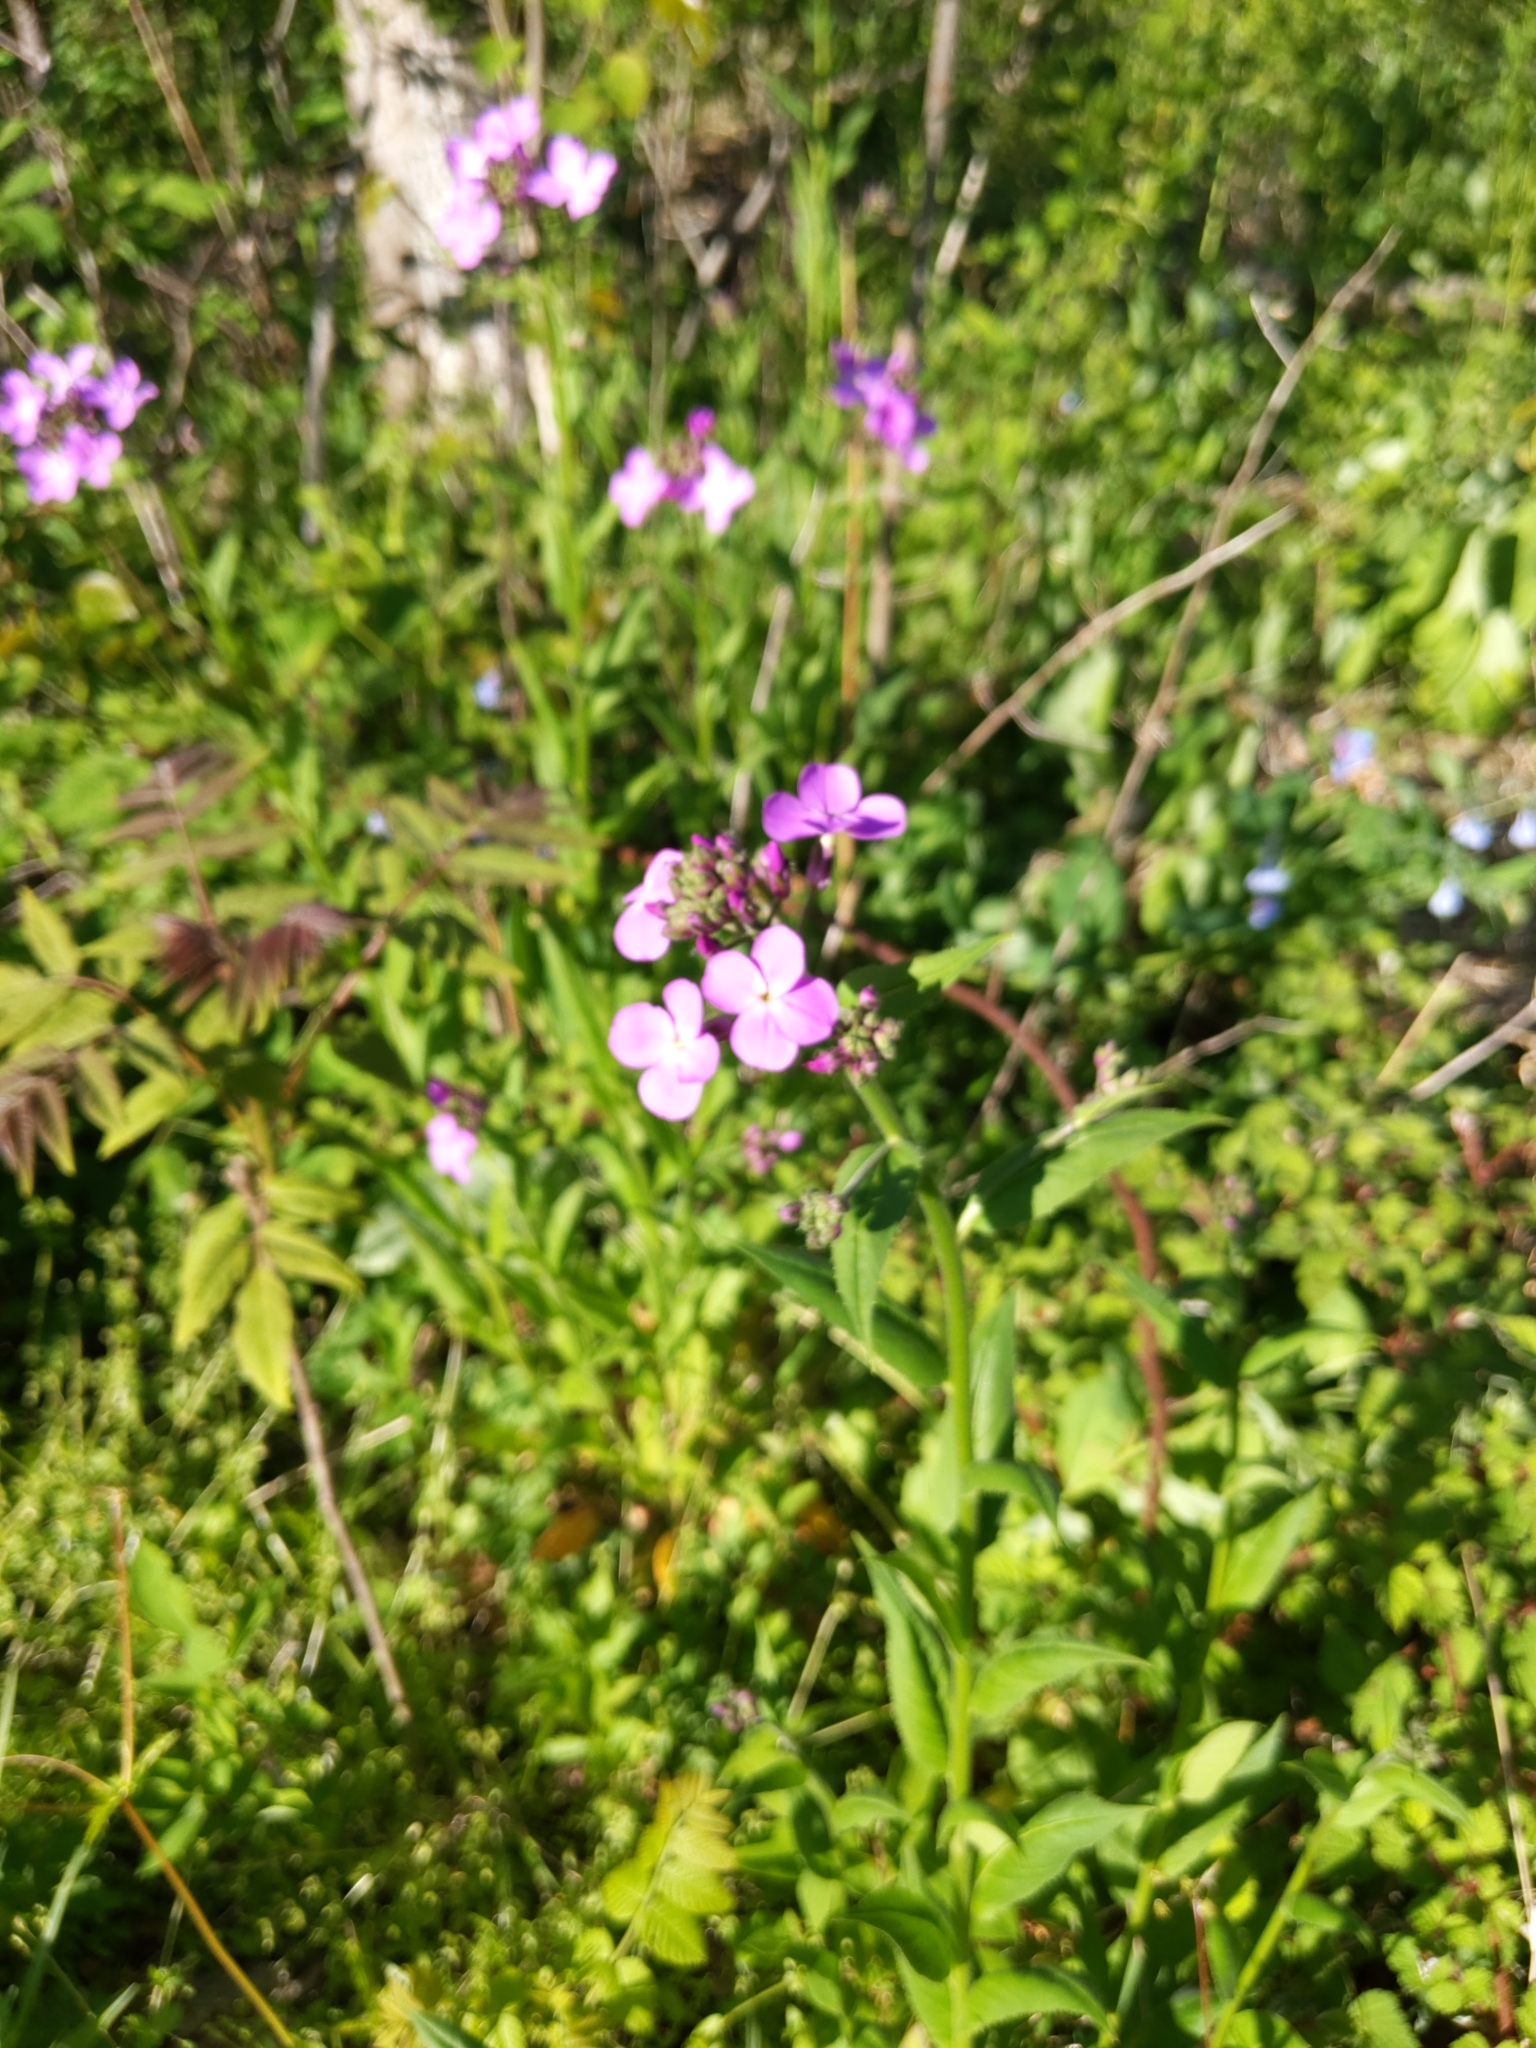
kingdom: Plantae
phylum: Tracheophyta
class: Magnoliopsida
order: Brassicales
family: Brassicaceae
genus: Hesperis
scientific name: Hesperis matronalis
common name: Dame's-violet
